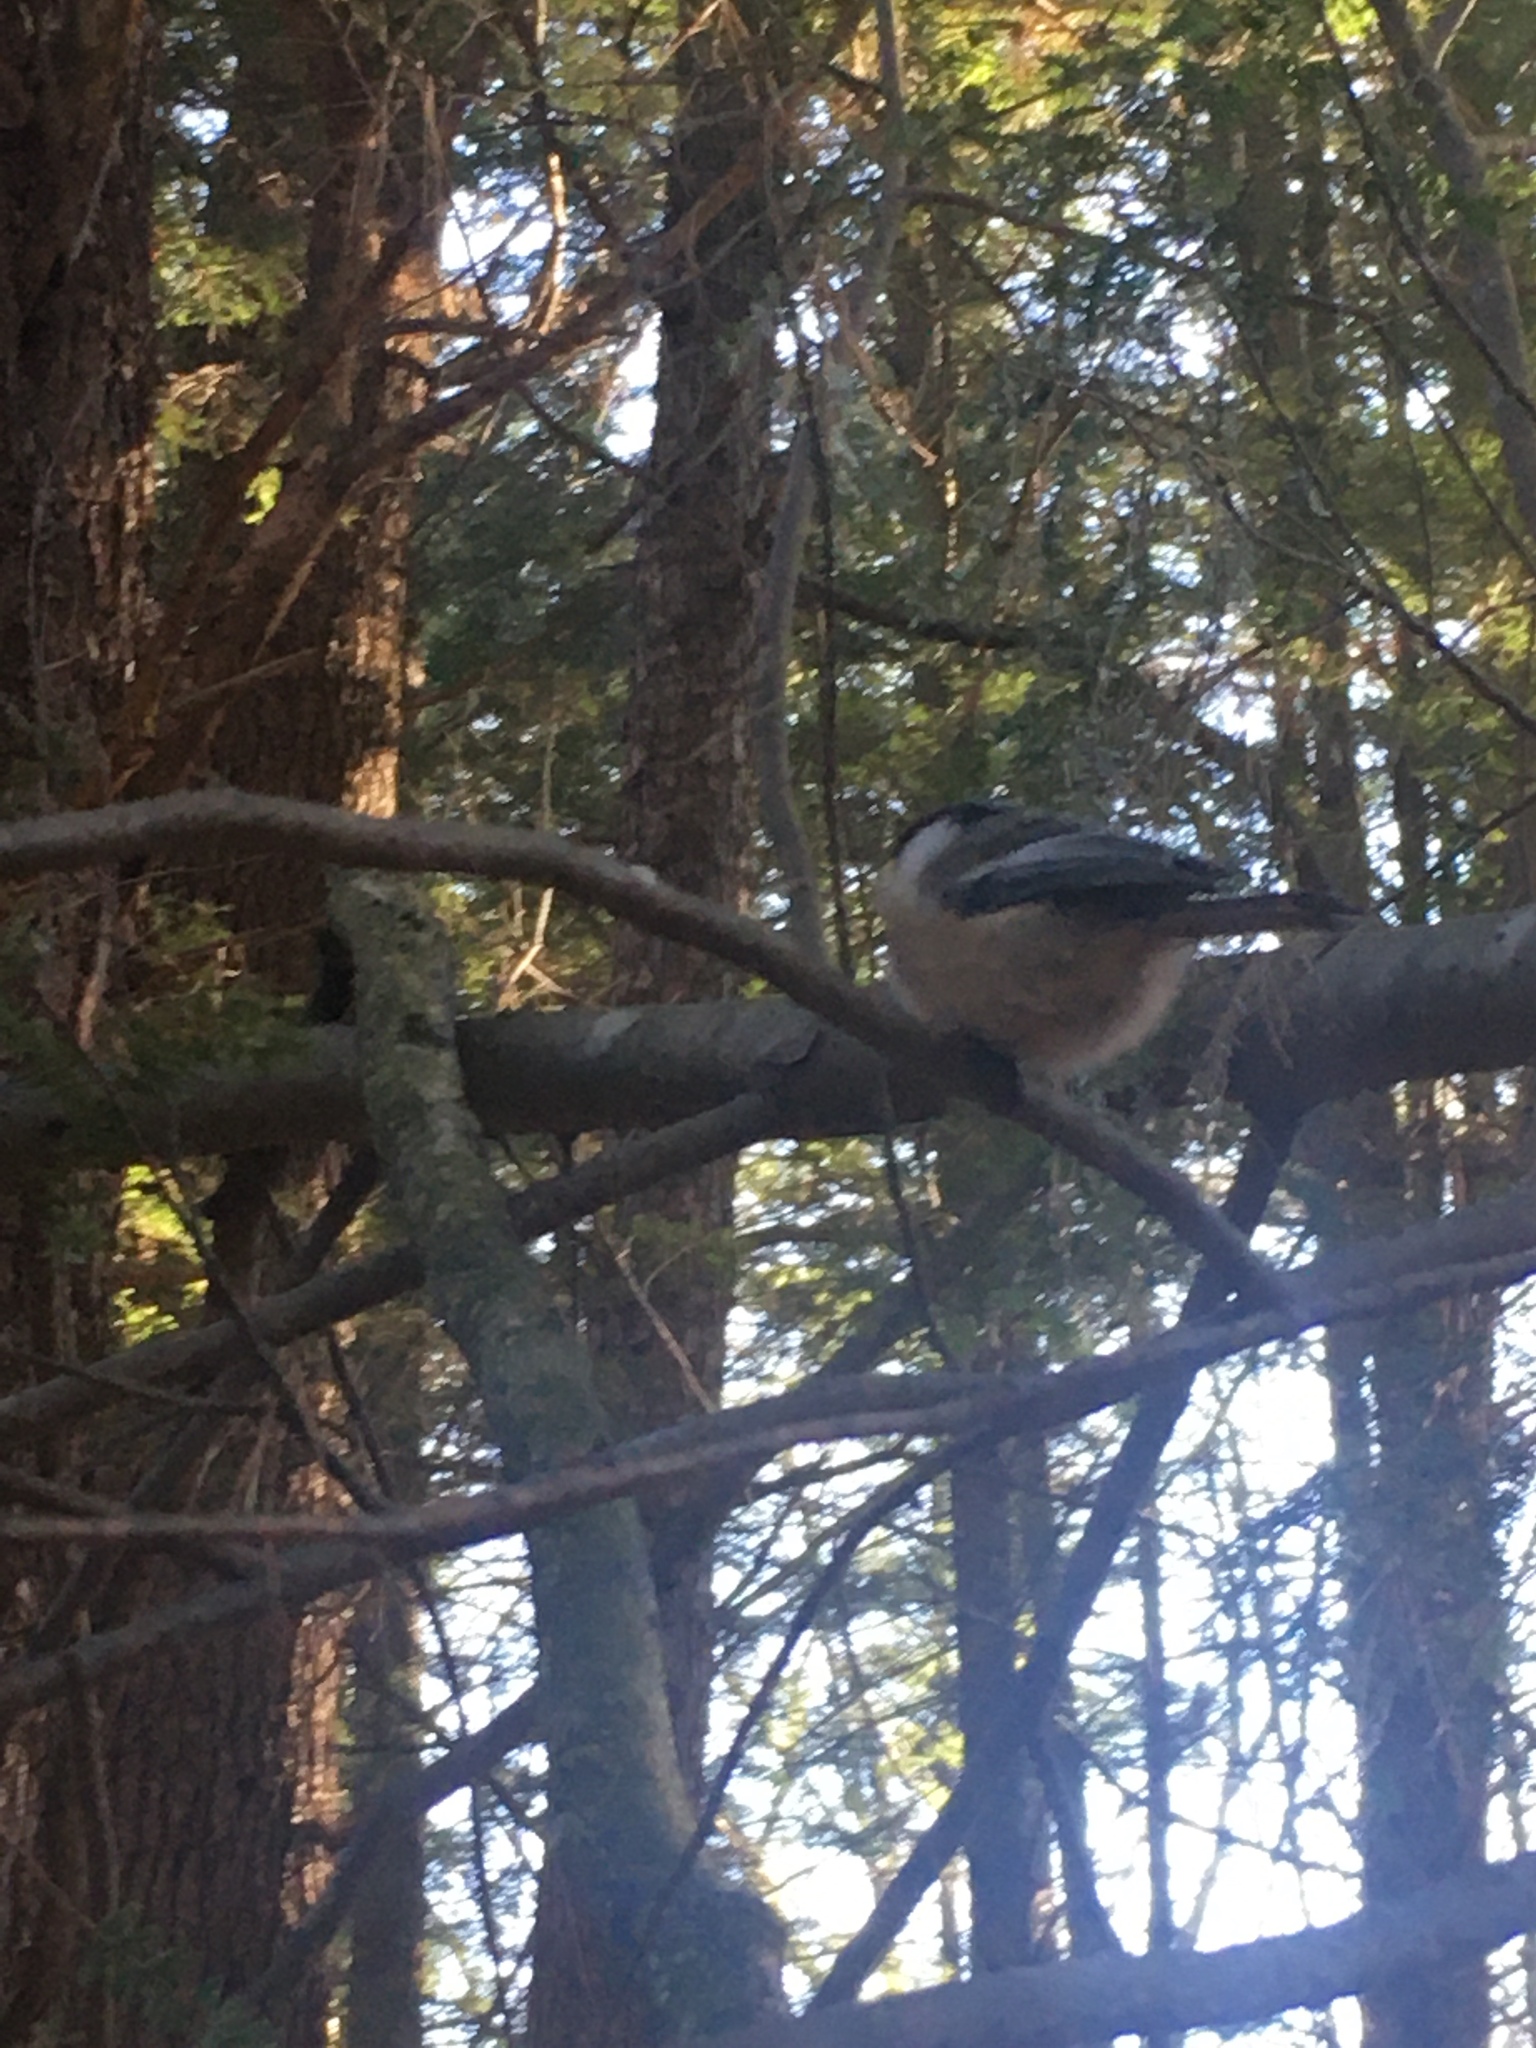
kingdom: Animalia
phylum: Chordata
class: Aves
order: Passeriformes
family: Paridae
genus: Poecile
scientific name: Poecile atricapillus
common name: Black-capped chickadee
